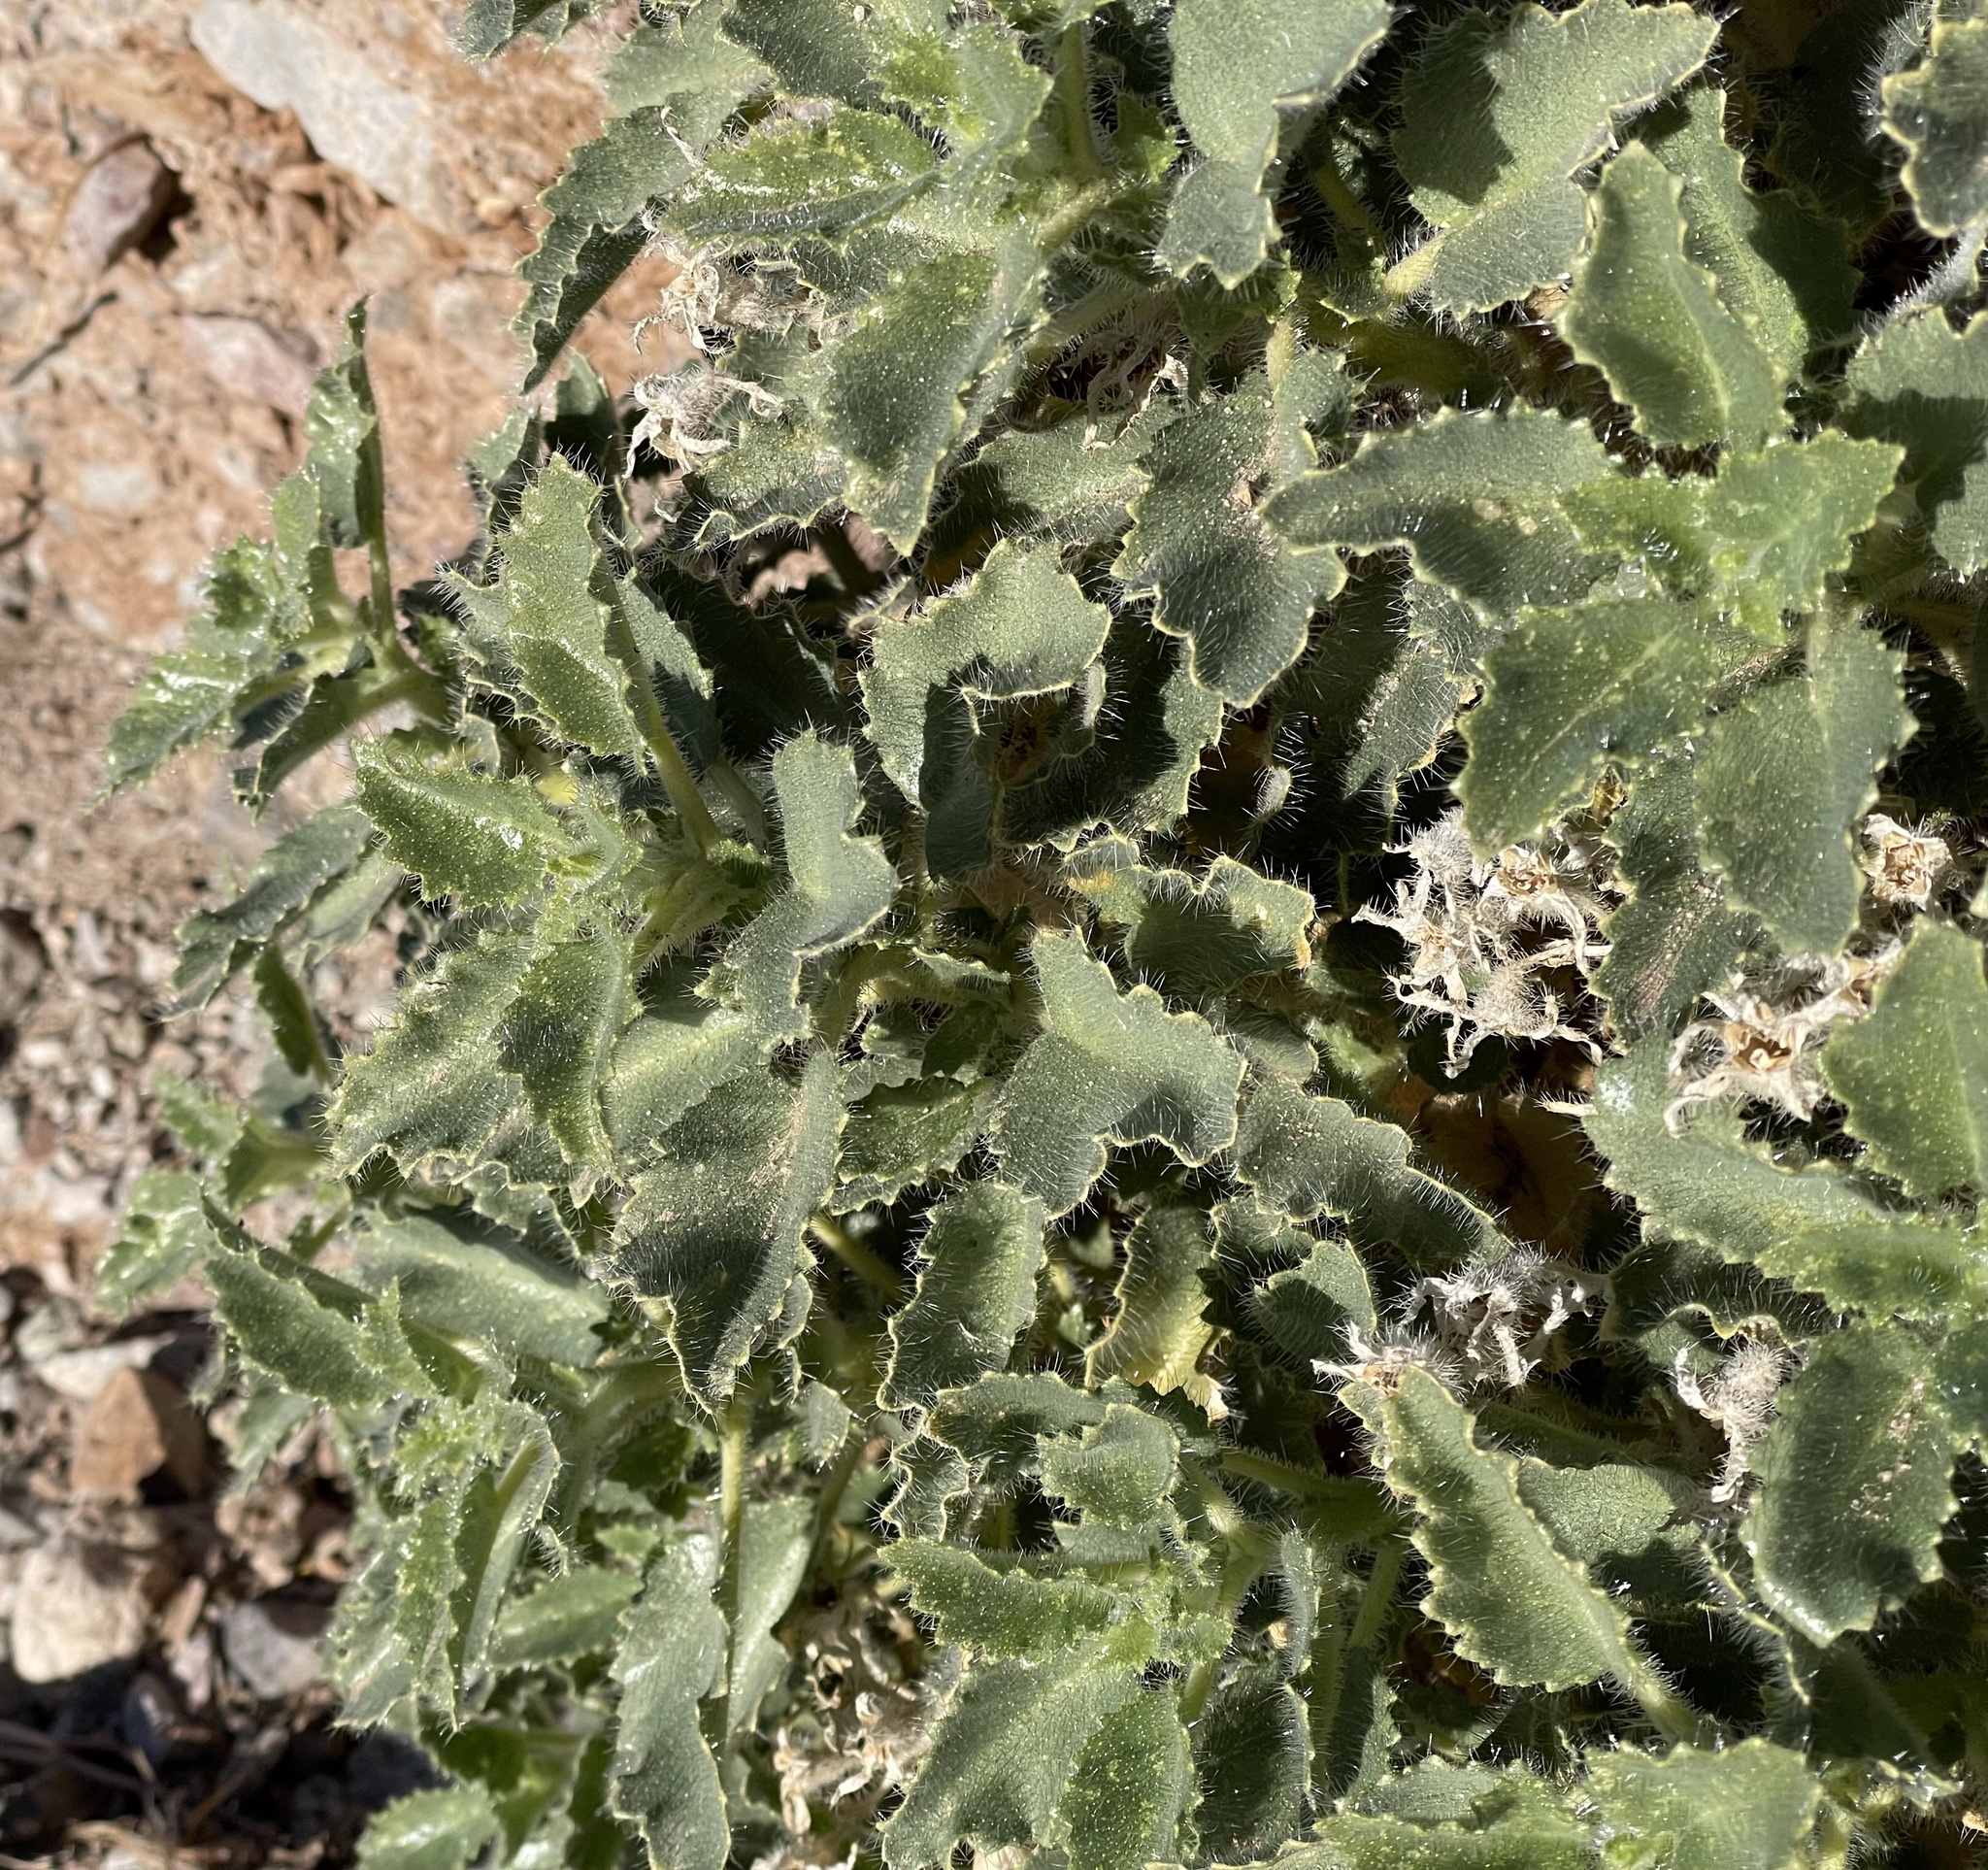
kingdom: Plantae
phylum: Tracheophyta
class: Magnoliopsida
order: Cornales
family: Loasaceae
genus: Eucnide
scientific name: Eucnide urens
